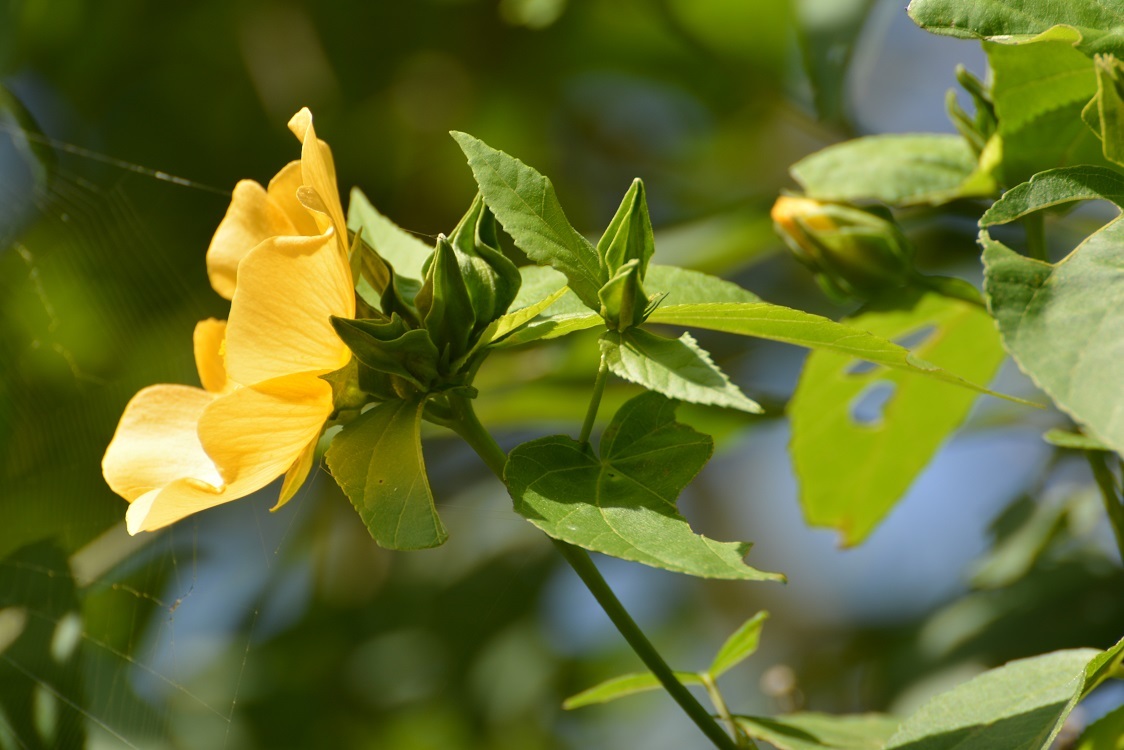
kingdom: Plantae
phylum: Tracheophyta
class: Magnoliopsida
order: Malvales
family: Malvaceae
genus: Dendrosida
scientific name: Dendrosida sharpiana
